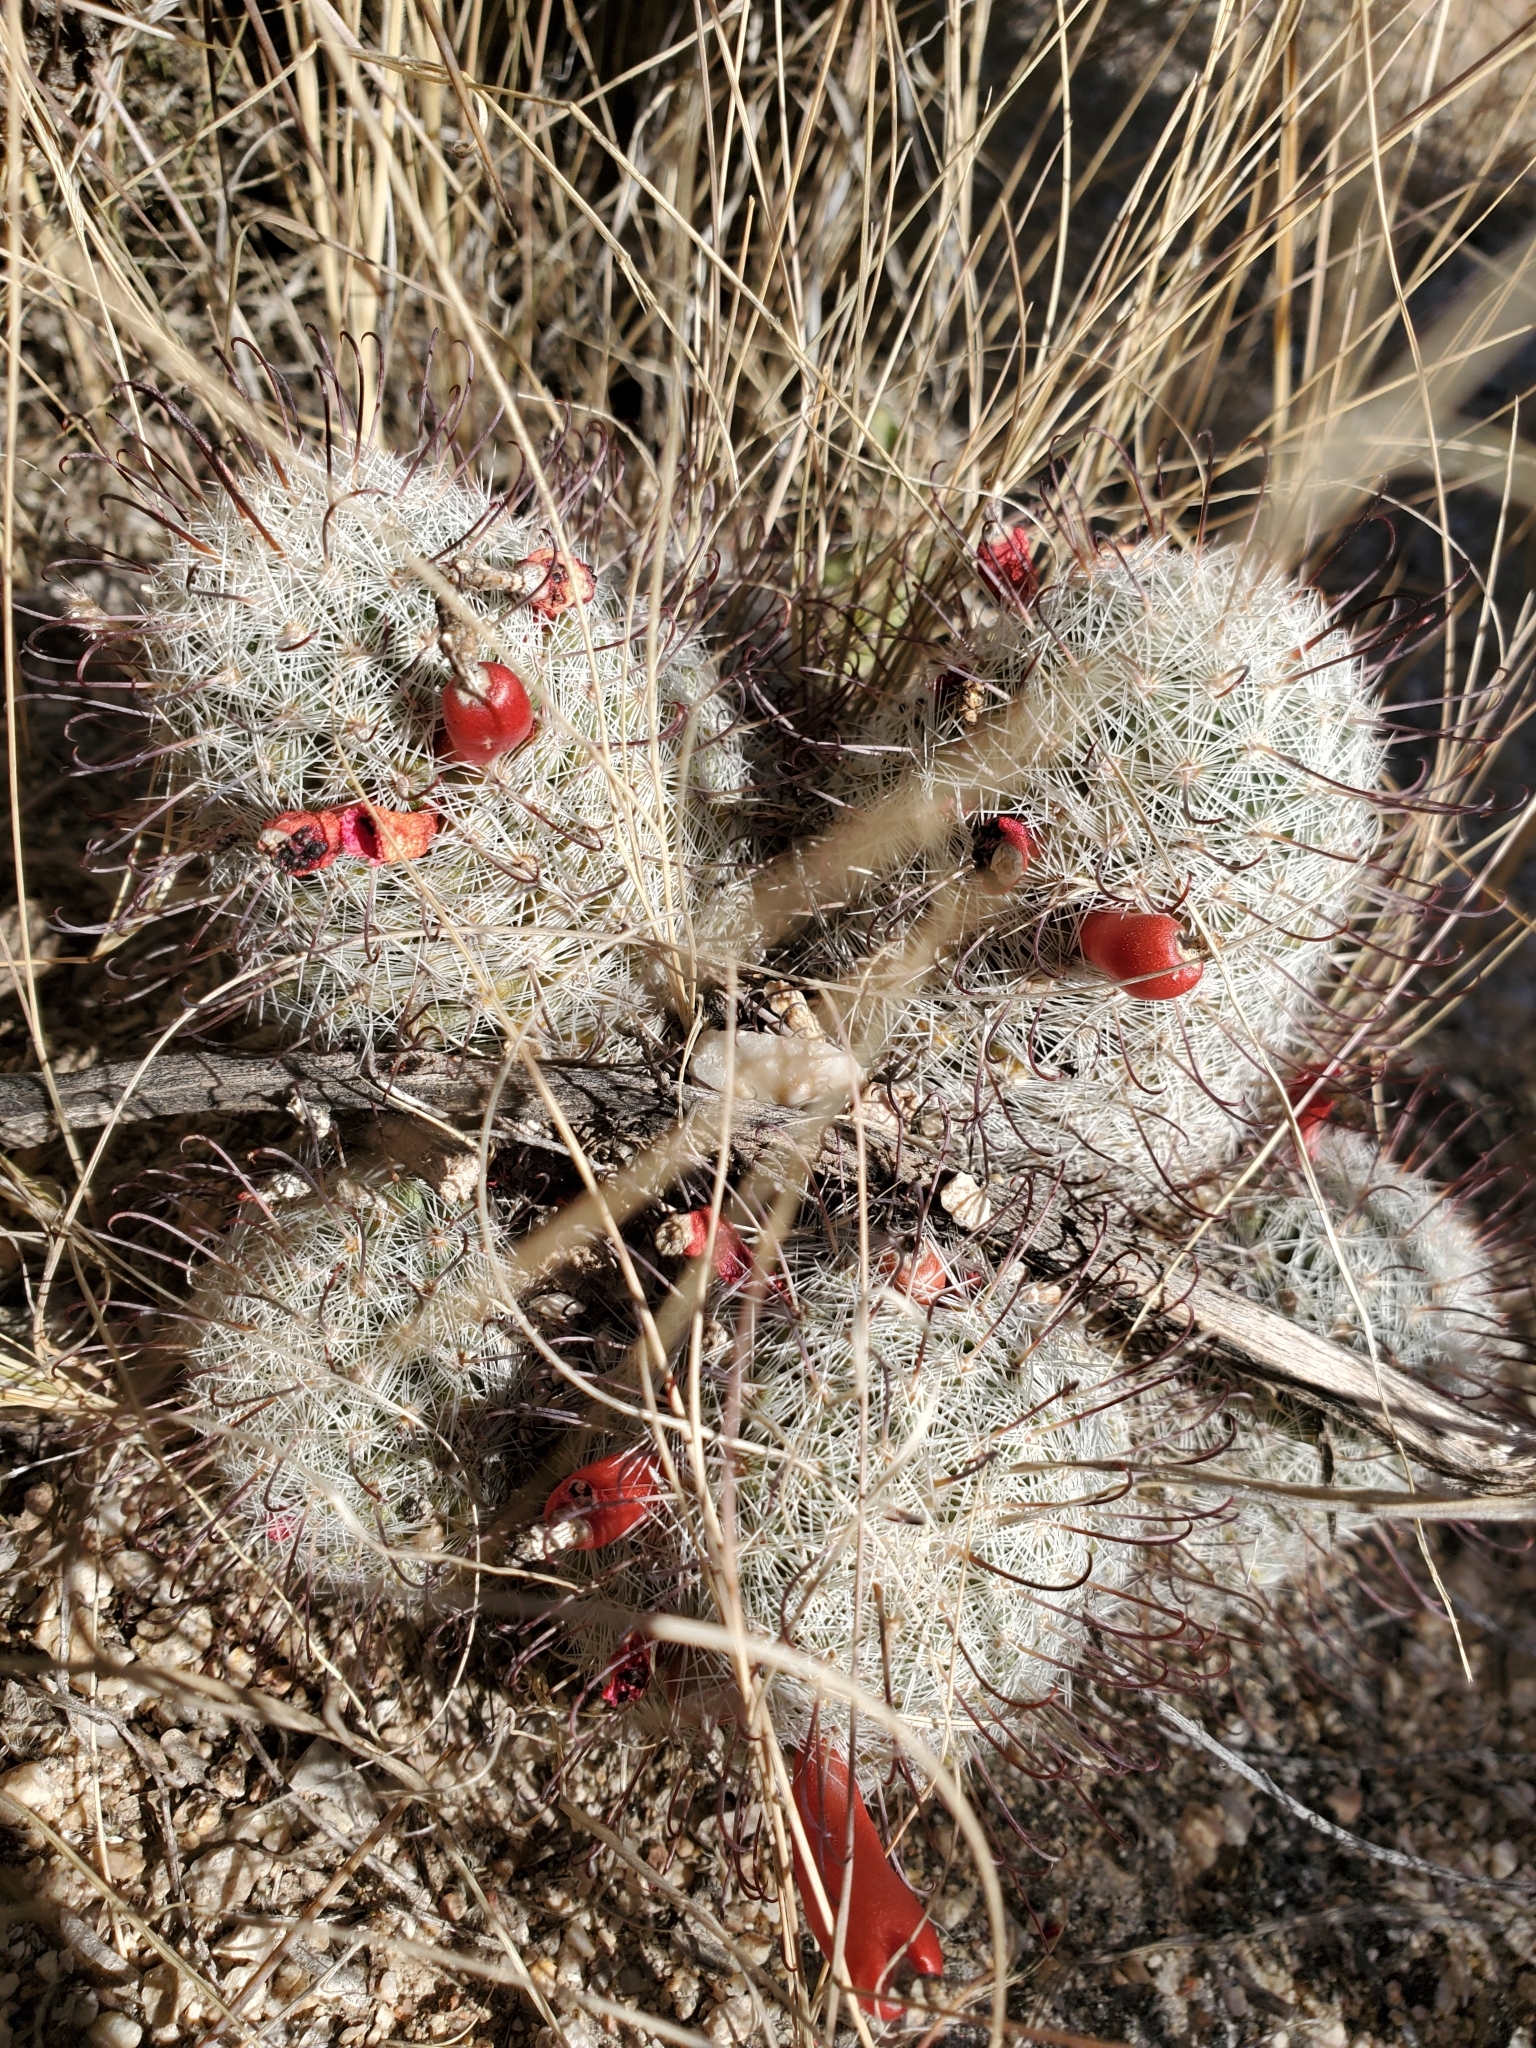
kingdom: Plantae
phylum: Tracheophyta
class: Magnoliopsida
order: Caryophyllales
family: Cactaceae
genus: Cochemiea
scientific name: Cochemiea grahamii
